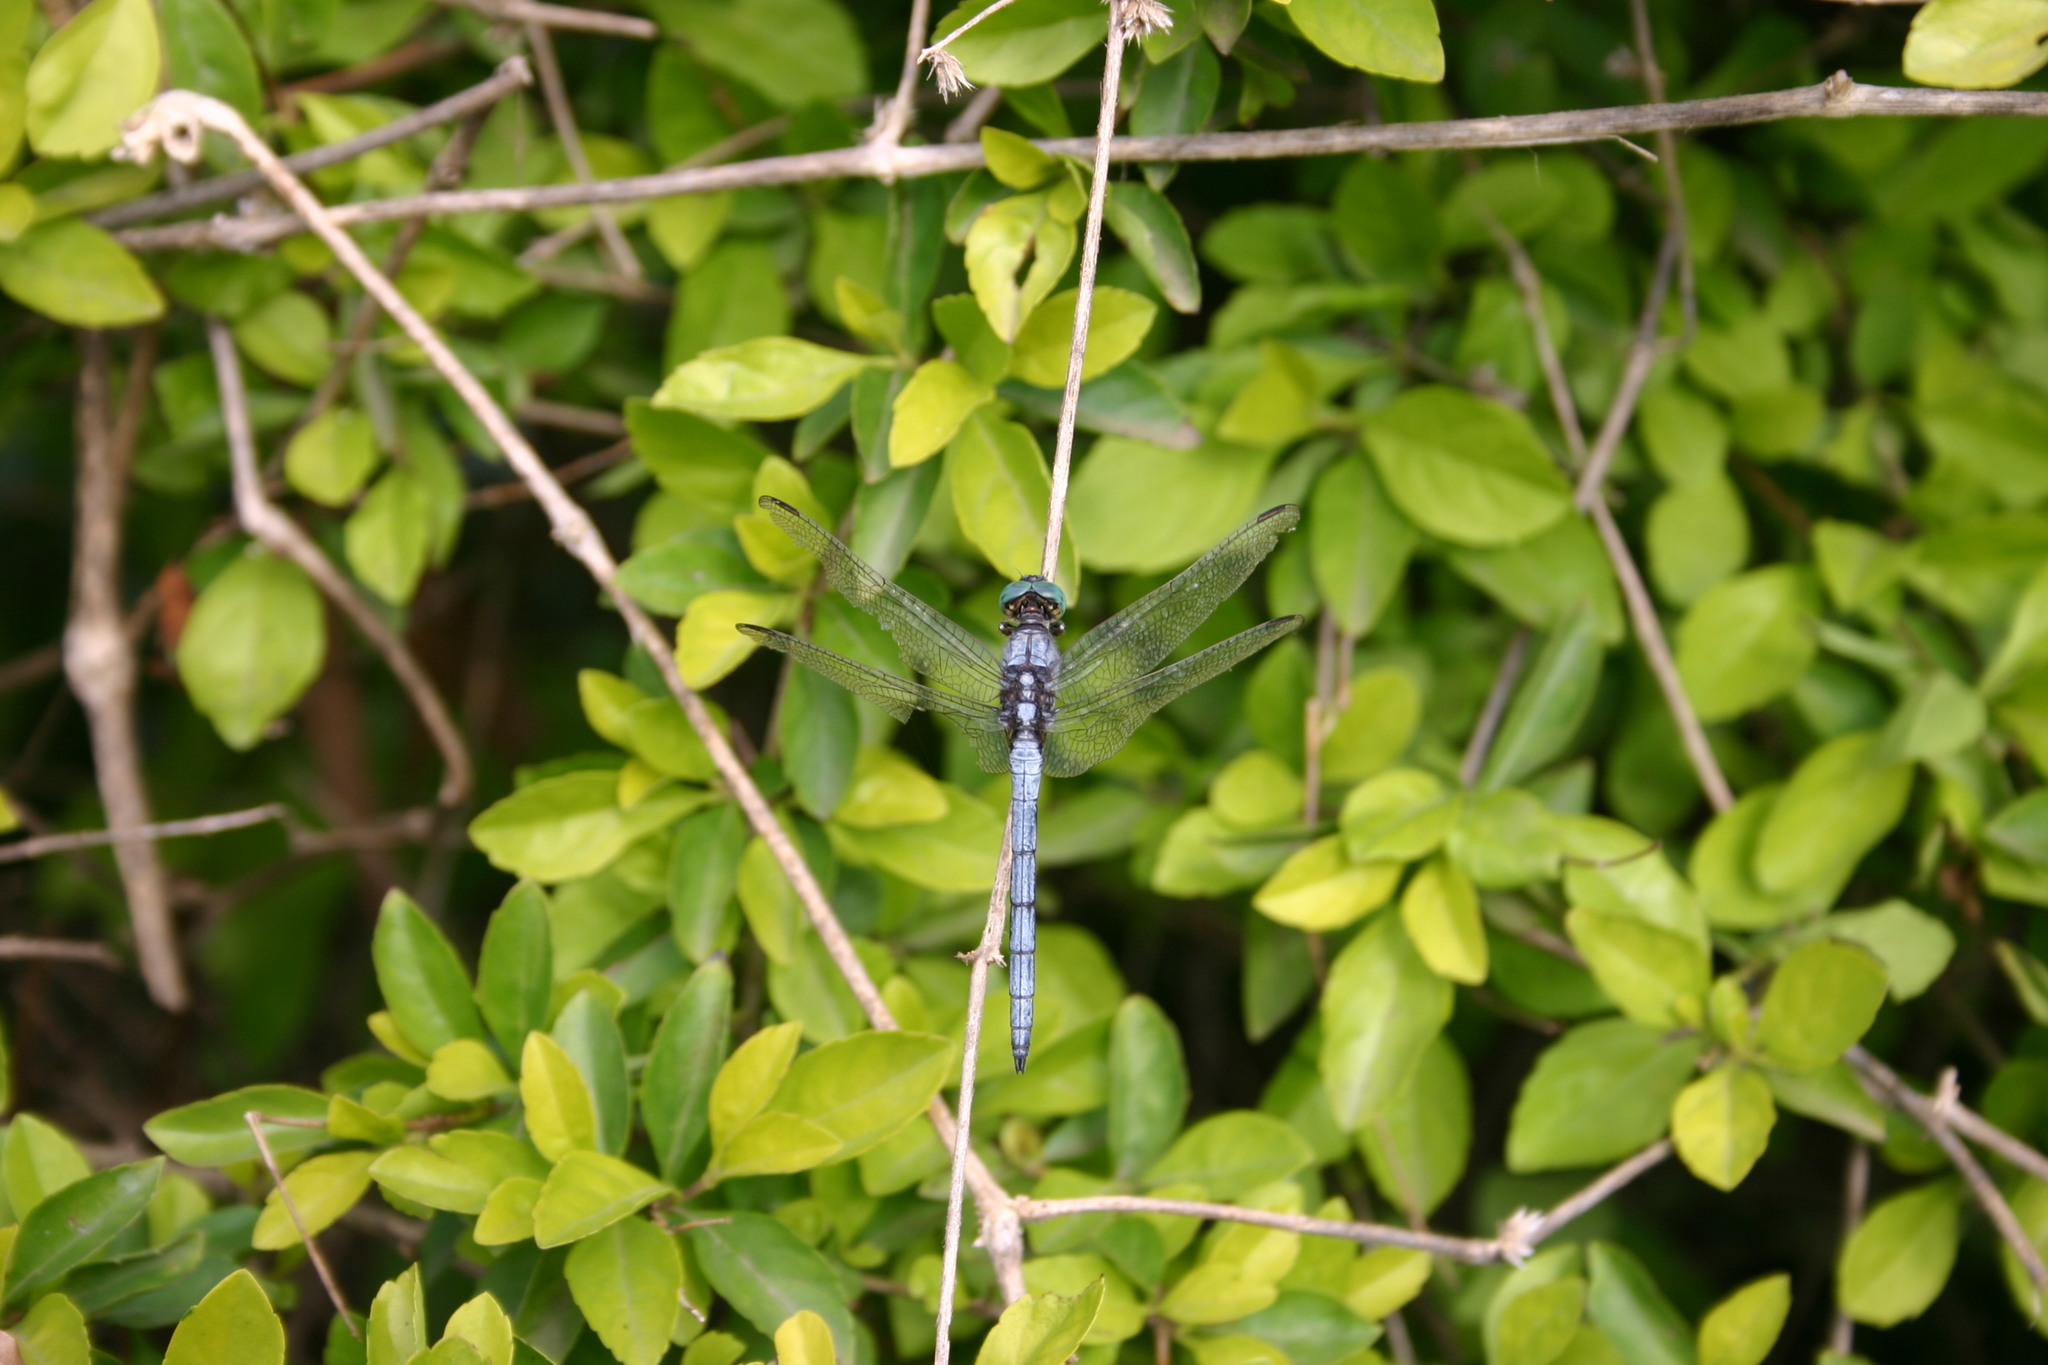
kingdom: Animalia
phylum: Arthropoda
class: Insecta
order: Odonata
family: Libellulidae
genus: Orthetrum
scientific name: Orthetrum luzonicum
